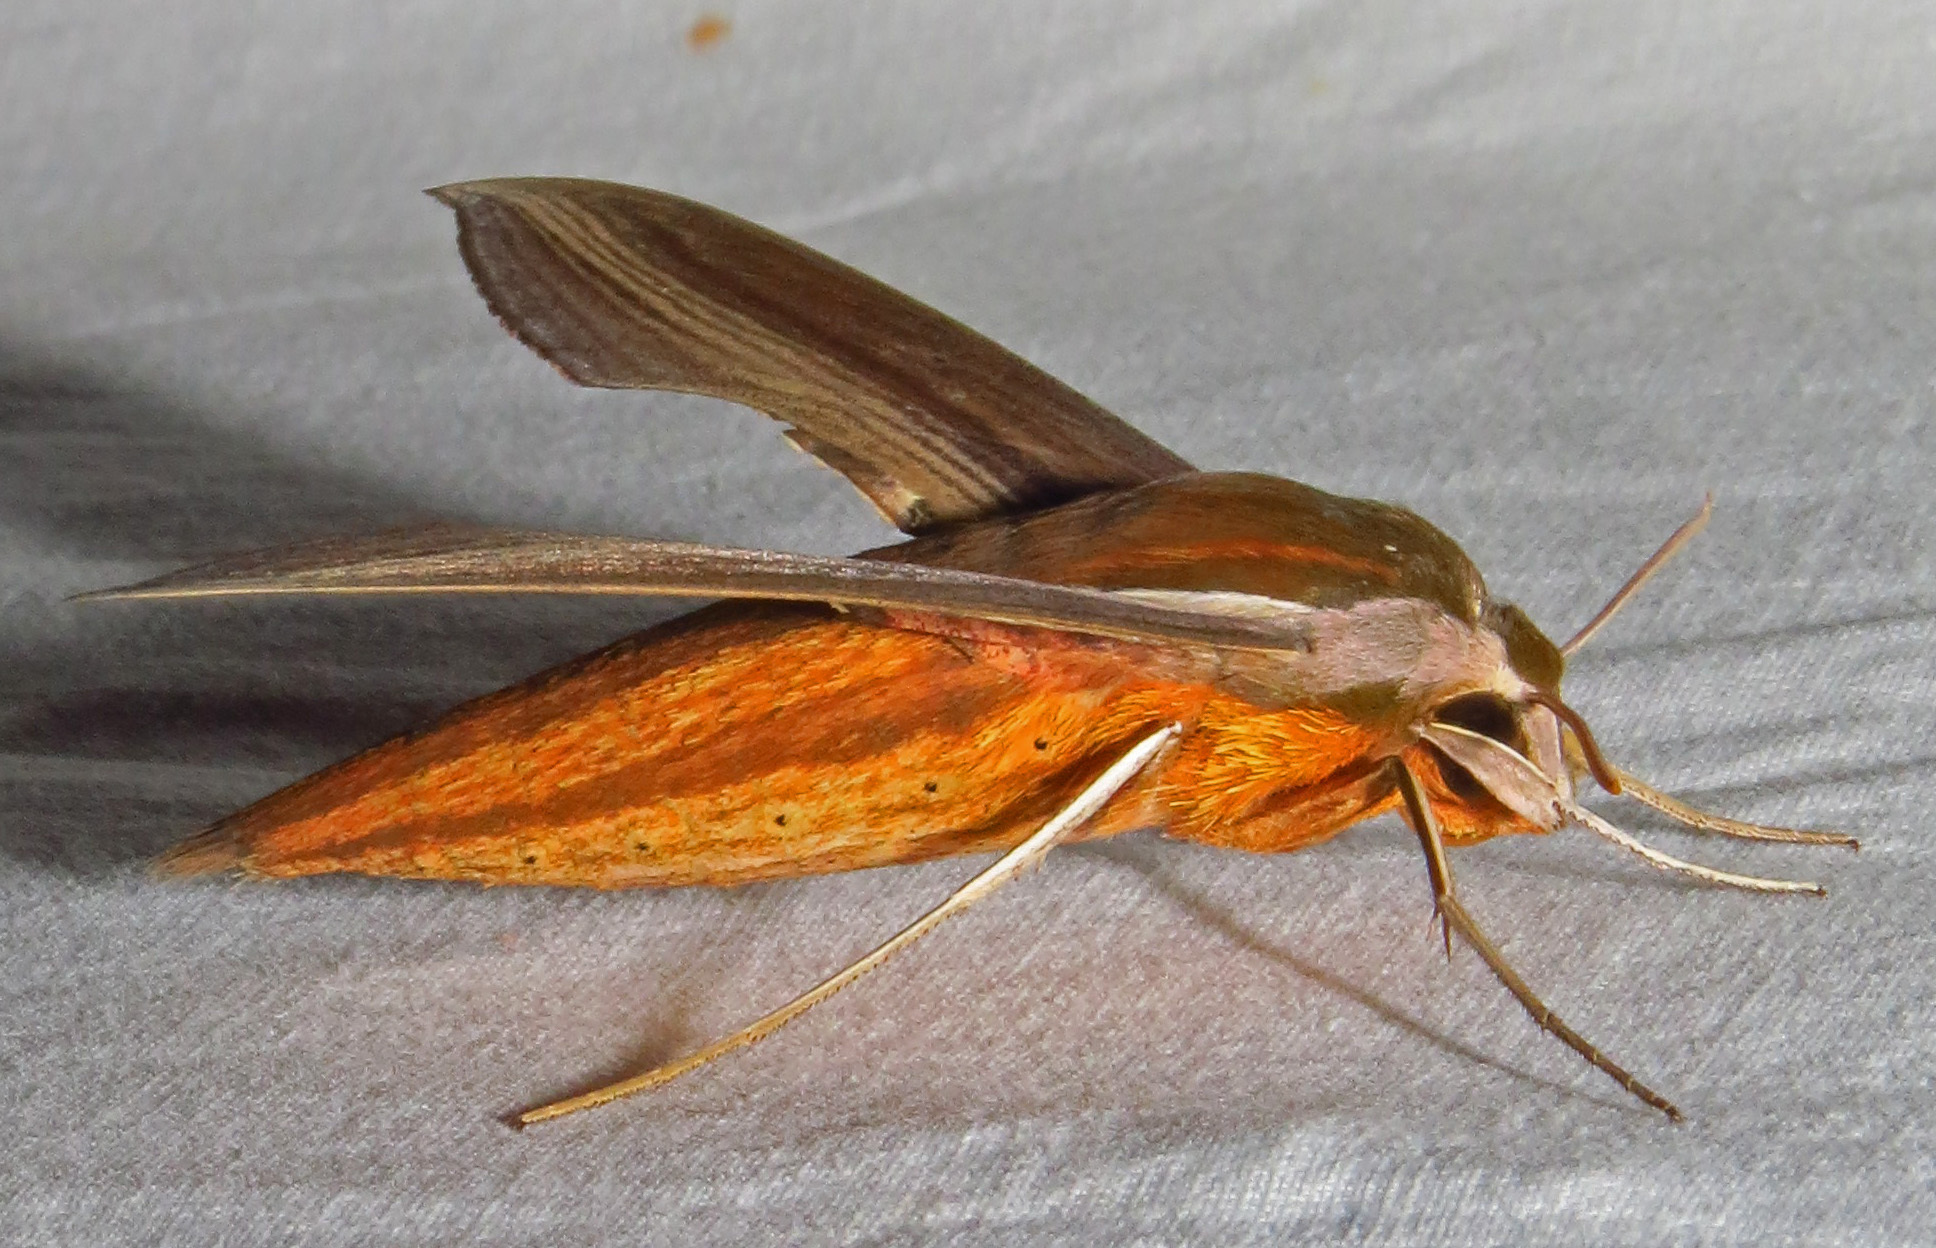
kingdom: Animalia
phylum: Arthropoda
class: Insecta
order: Lepidoptera
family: Sphingidae
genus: Xylophanes
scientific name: Xylophanes tersa
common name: Tersa sphinx
